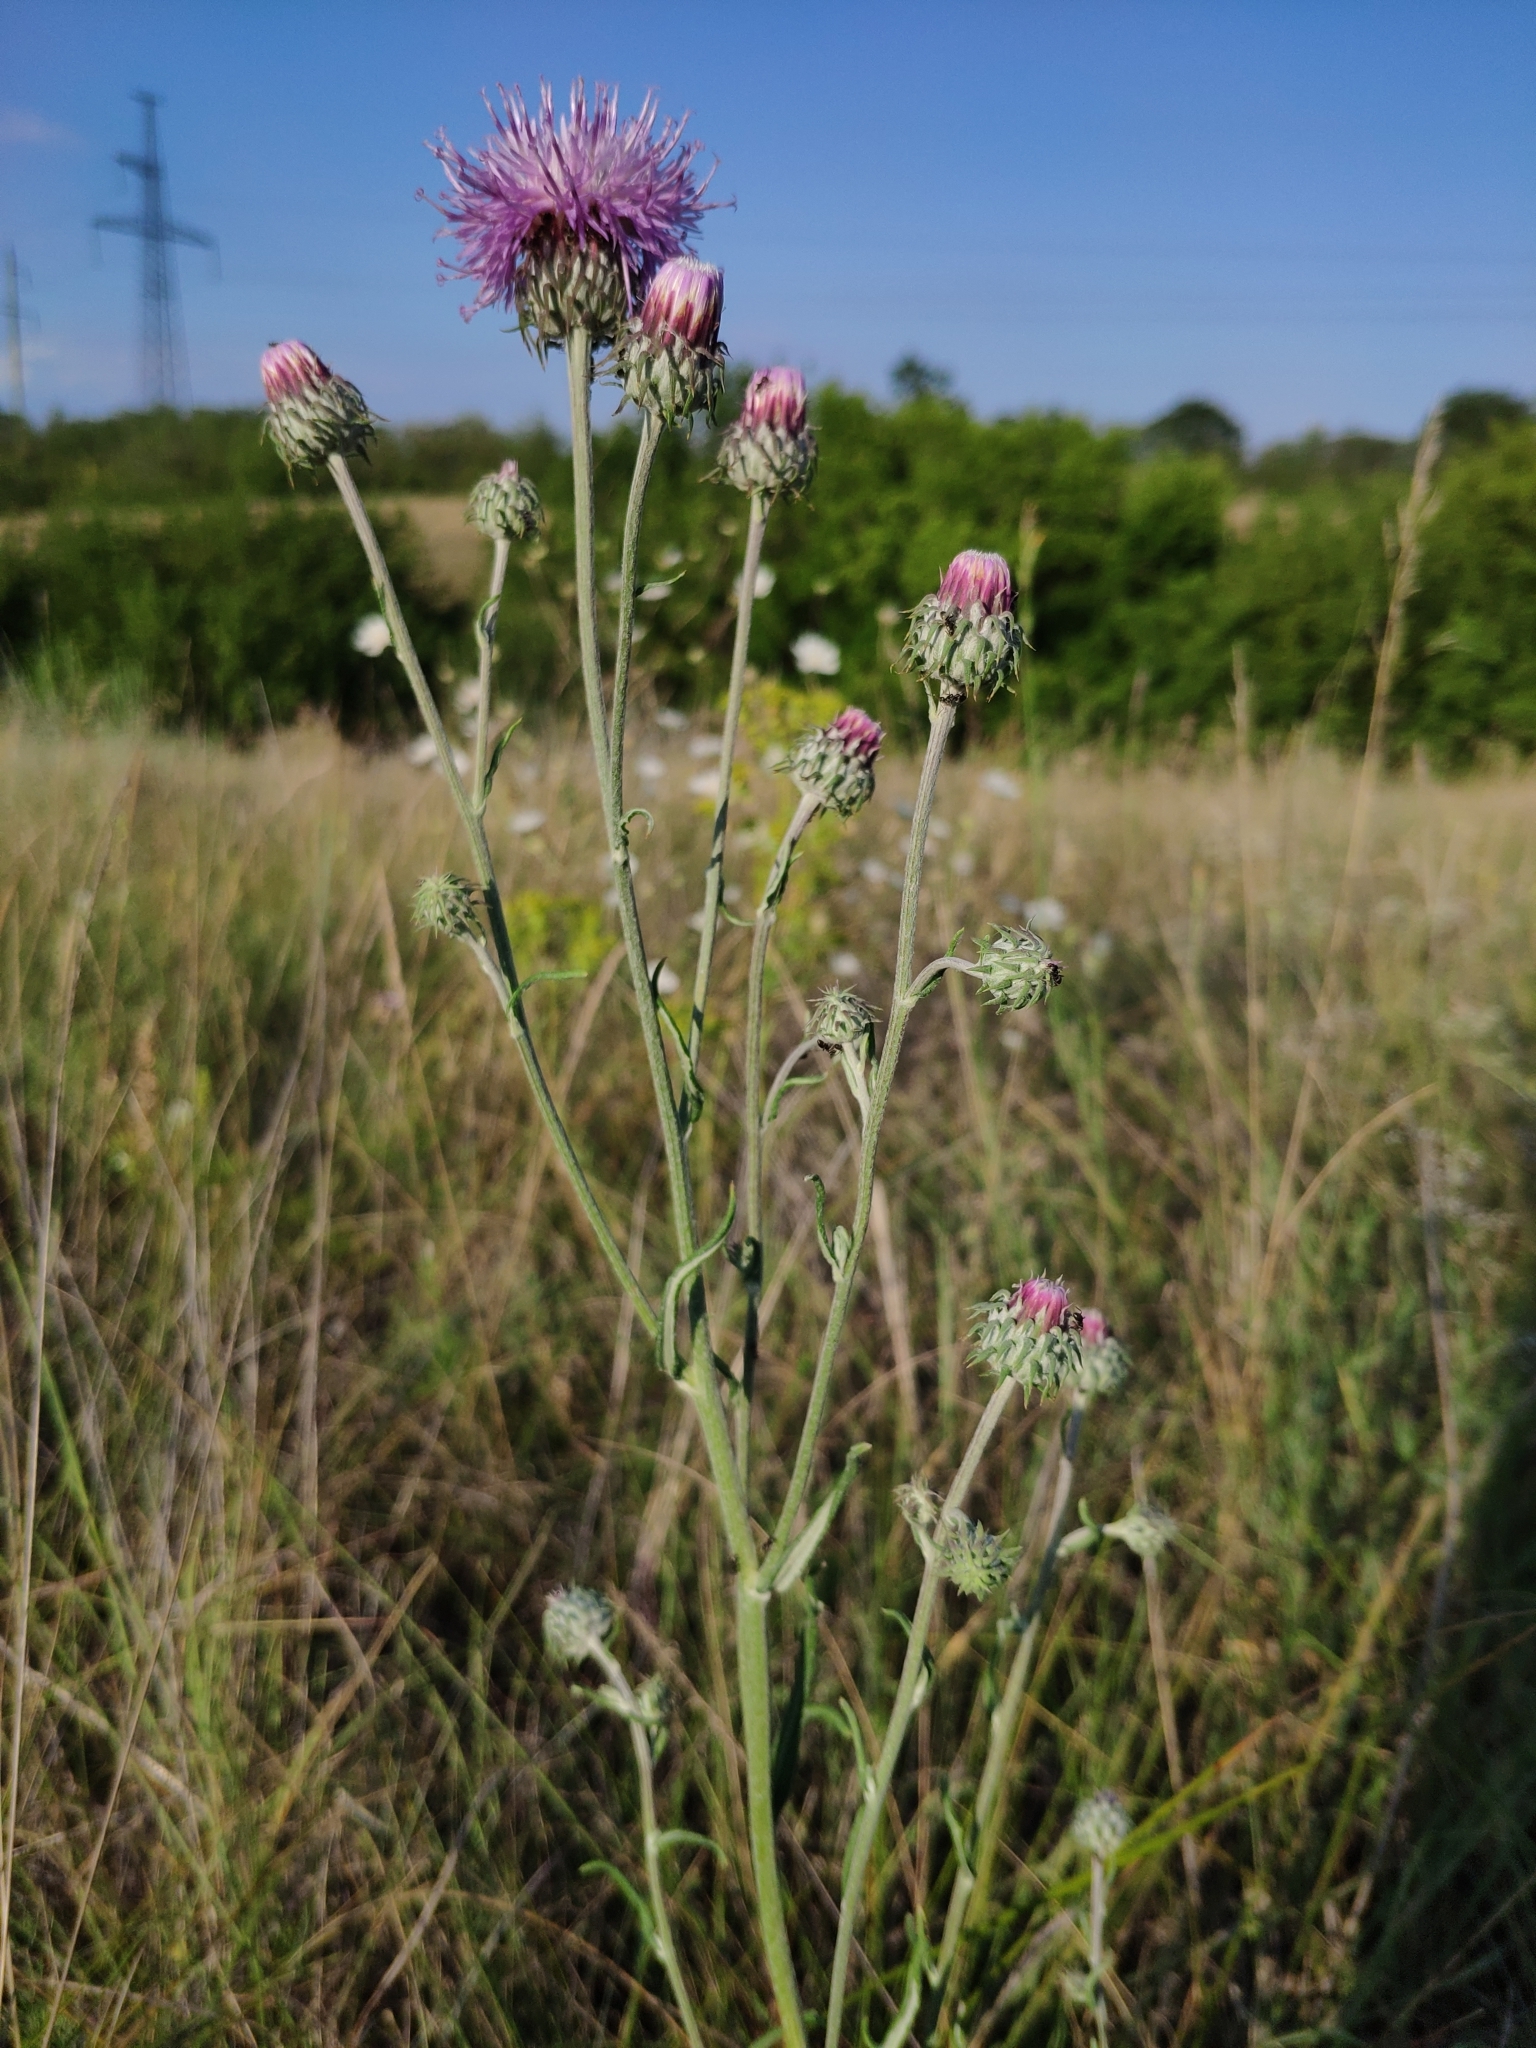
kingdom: Plantae
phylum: Tracheophyta
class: Magnoliopsida
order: Asterales
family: Asteraceae
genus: Jurinea
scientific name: Jurinea cyanoides
